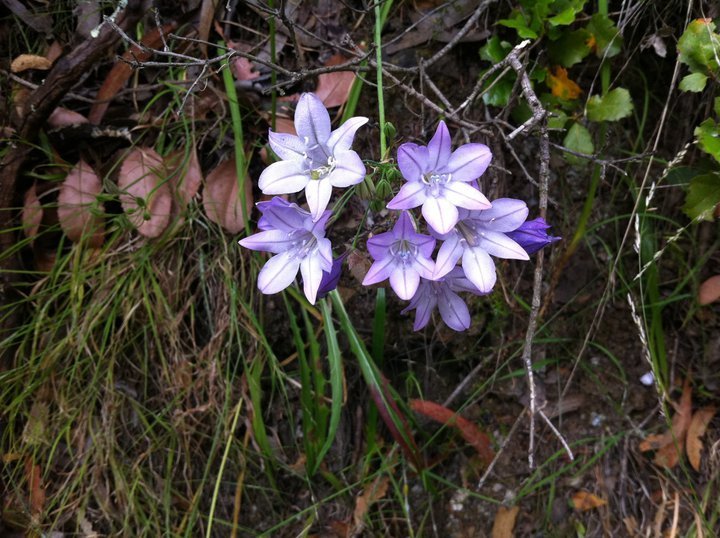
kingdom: Plantae
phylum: Tracheophyta
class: Liliopsida
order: Asparagales
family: Asparagaceae
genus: Triteleia
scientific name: Triteleia laxa
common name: Triplet-lily
